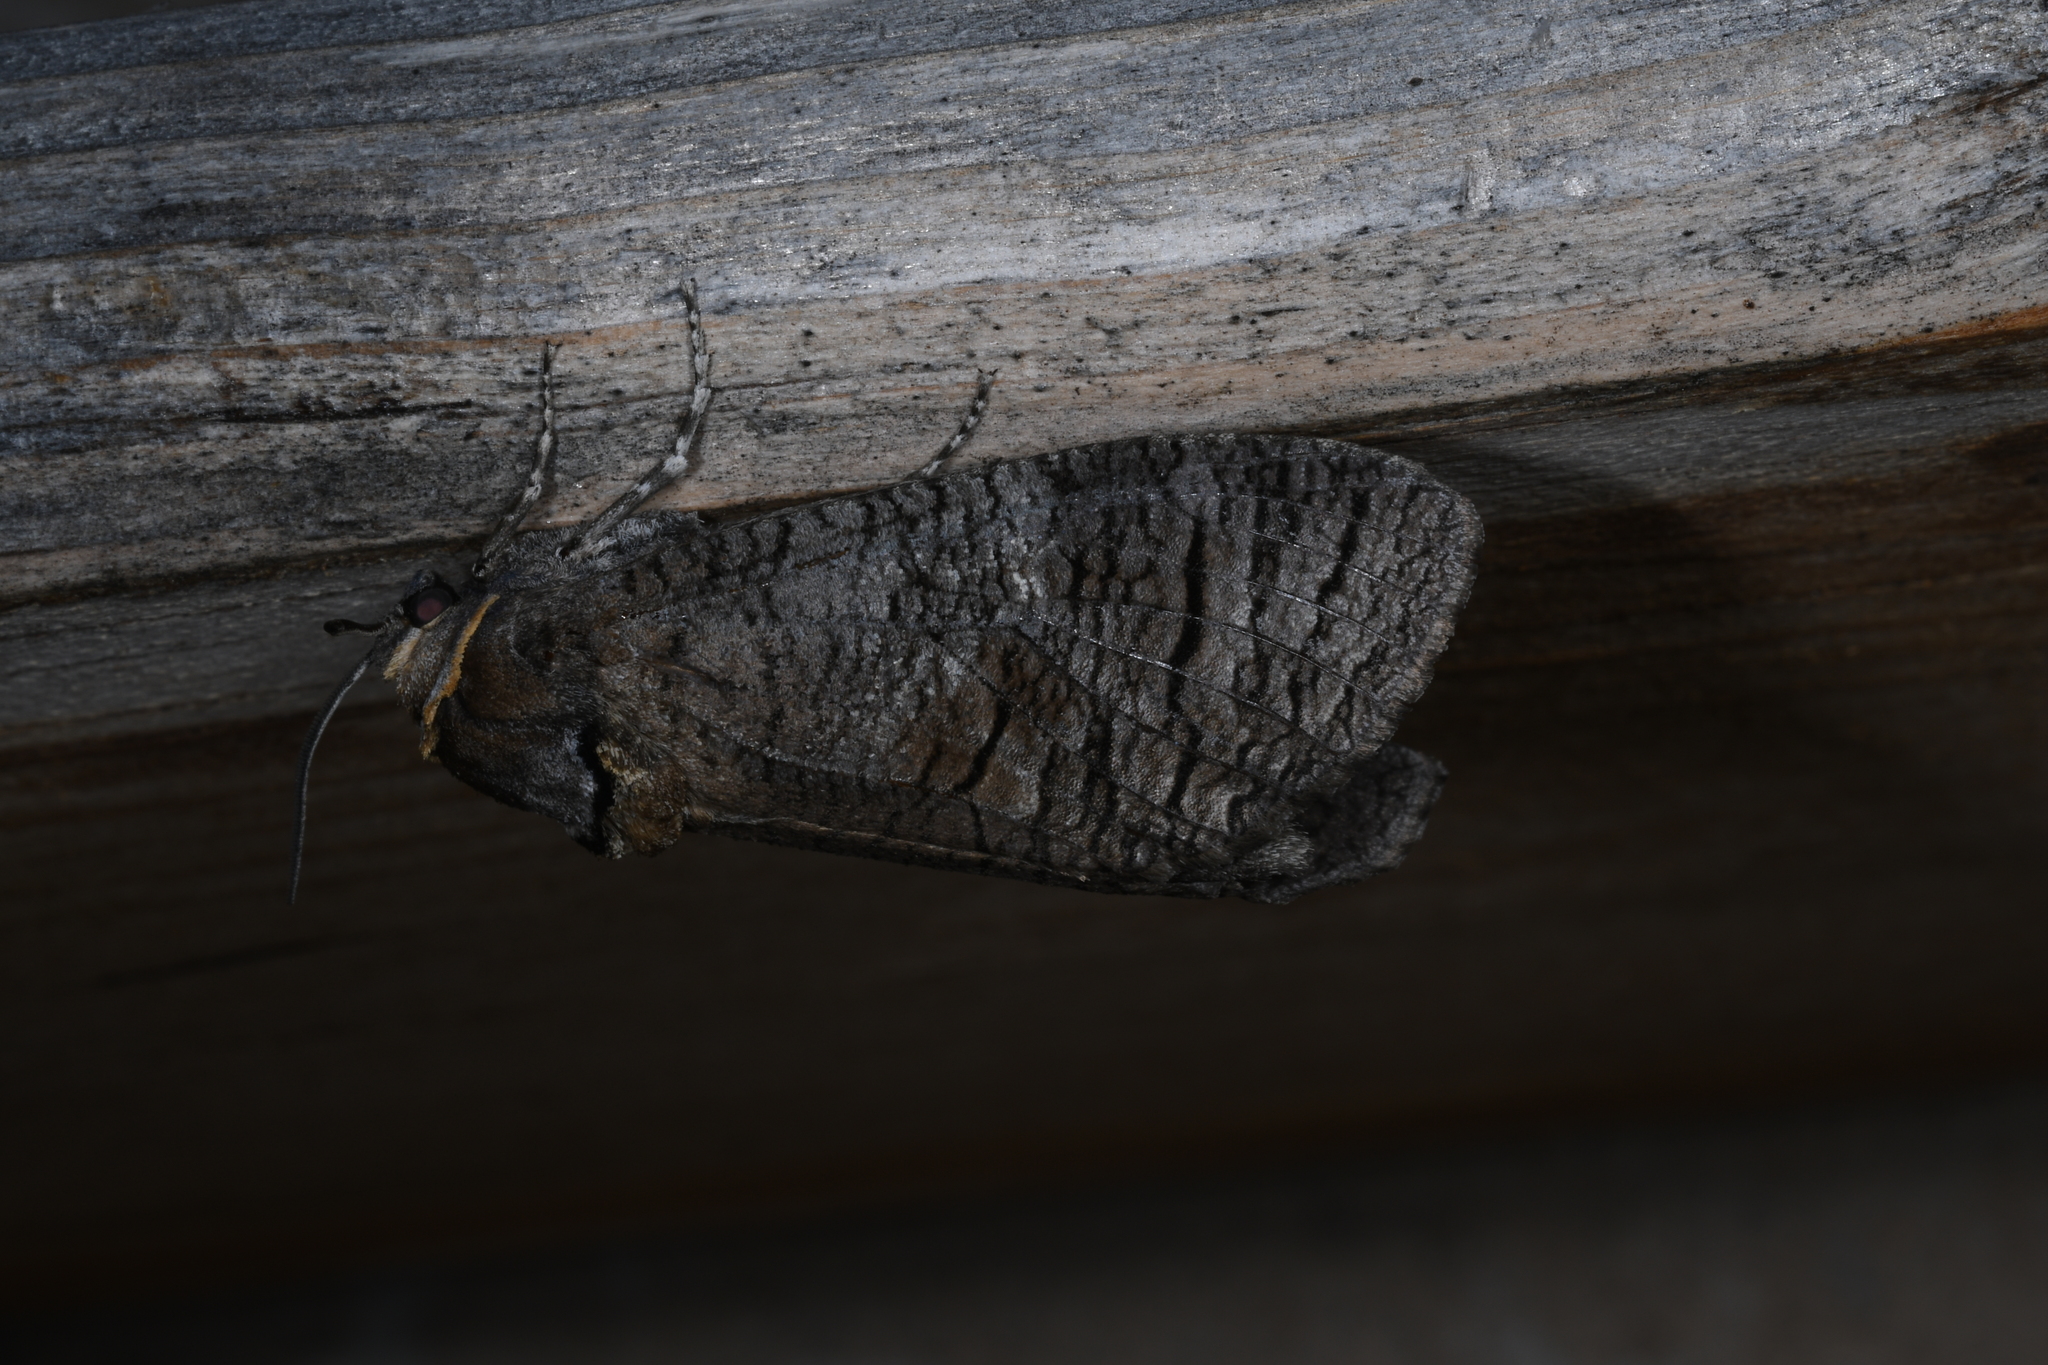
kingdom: Animalia
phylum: Arthropoda
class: Insecta
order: Lepidoptera
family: Cossidae
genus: Cossus
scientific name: Cossus cossus
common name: Goat moth
